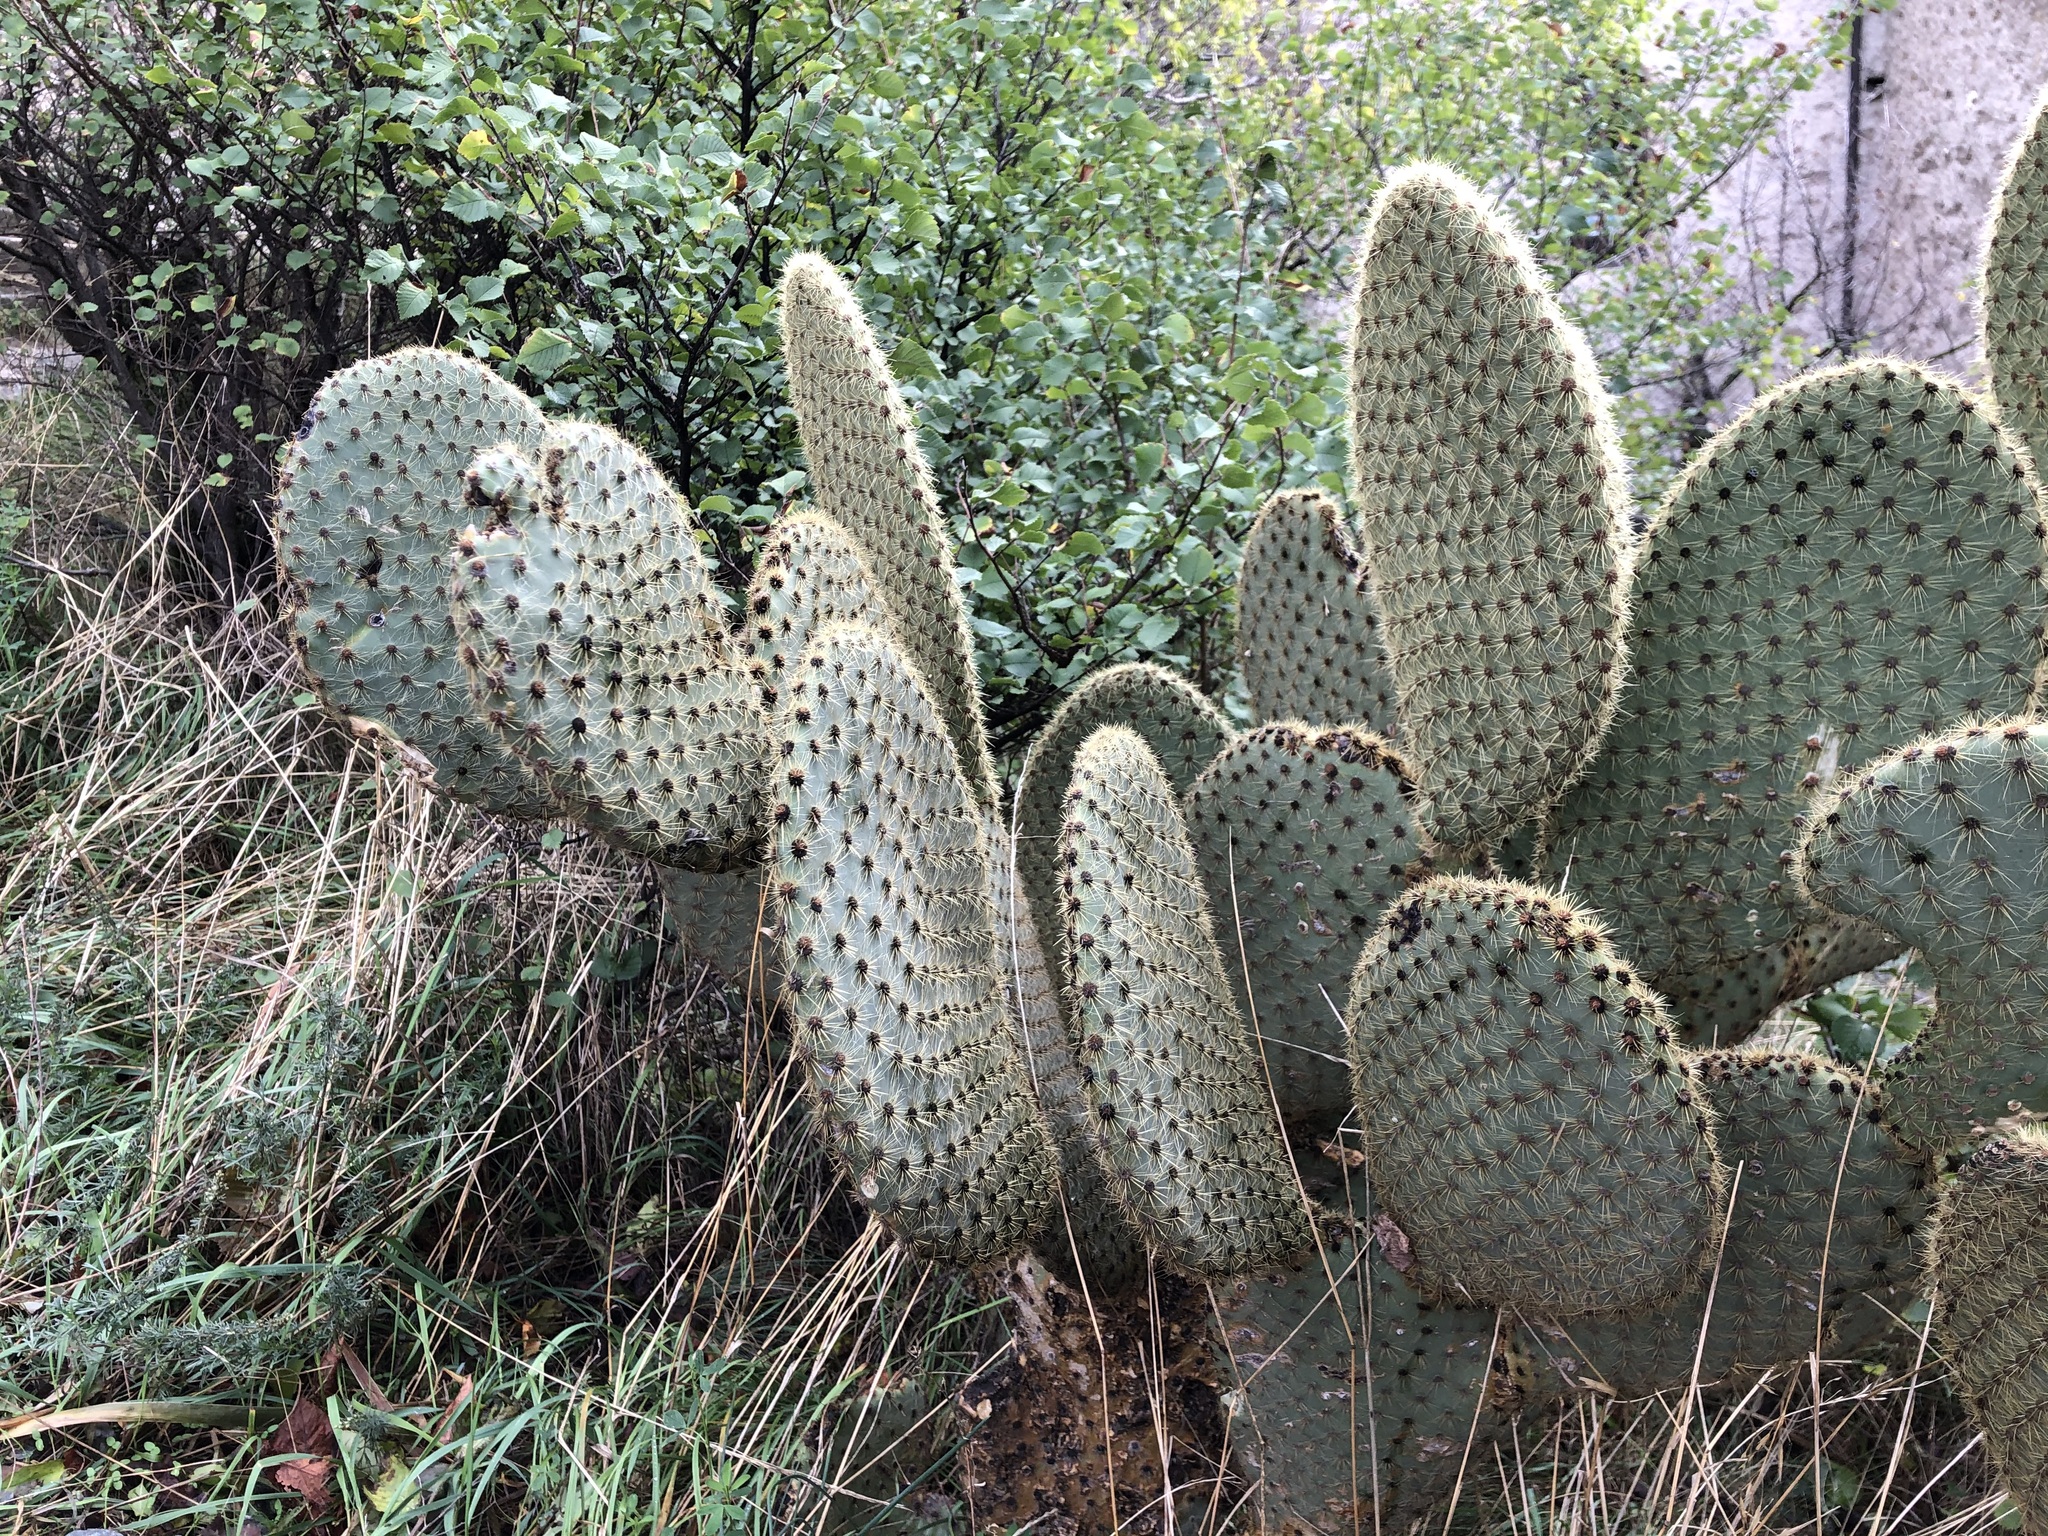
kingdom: Plantae
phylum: Tracheophyta
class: Magnoliopsida
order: Caryophyllales
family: Cactaceae
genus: Opuntia
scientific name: Opuntia scheeri
